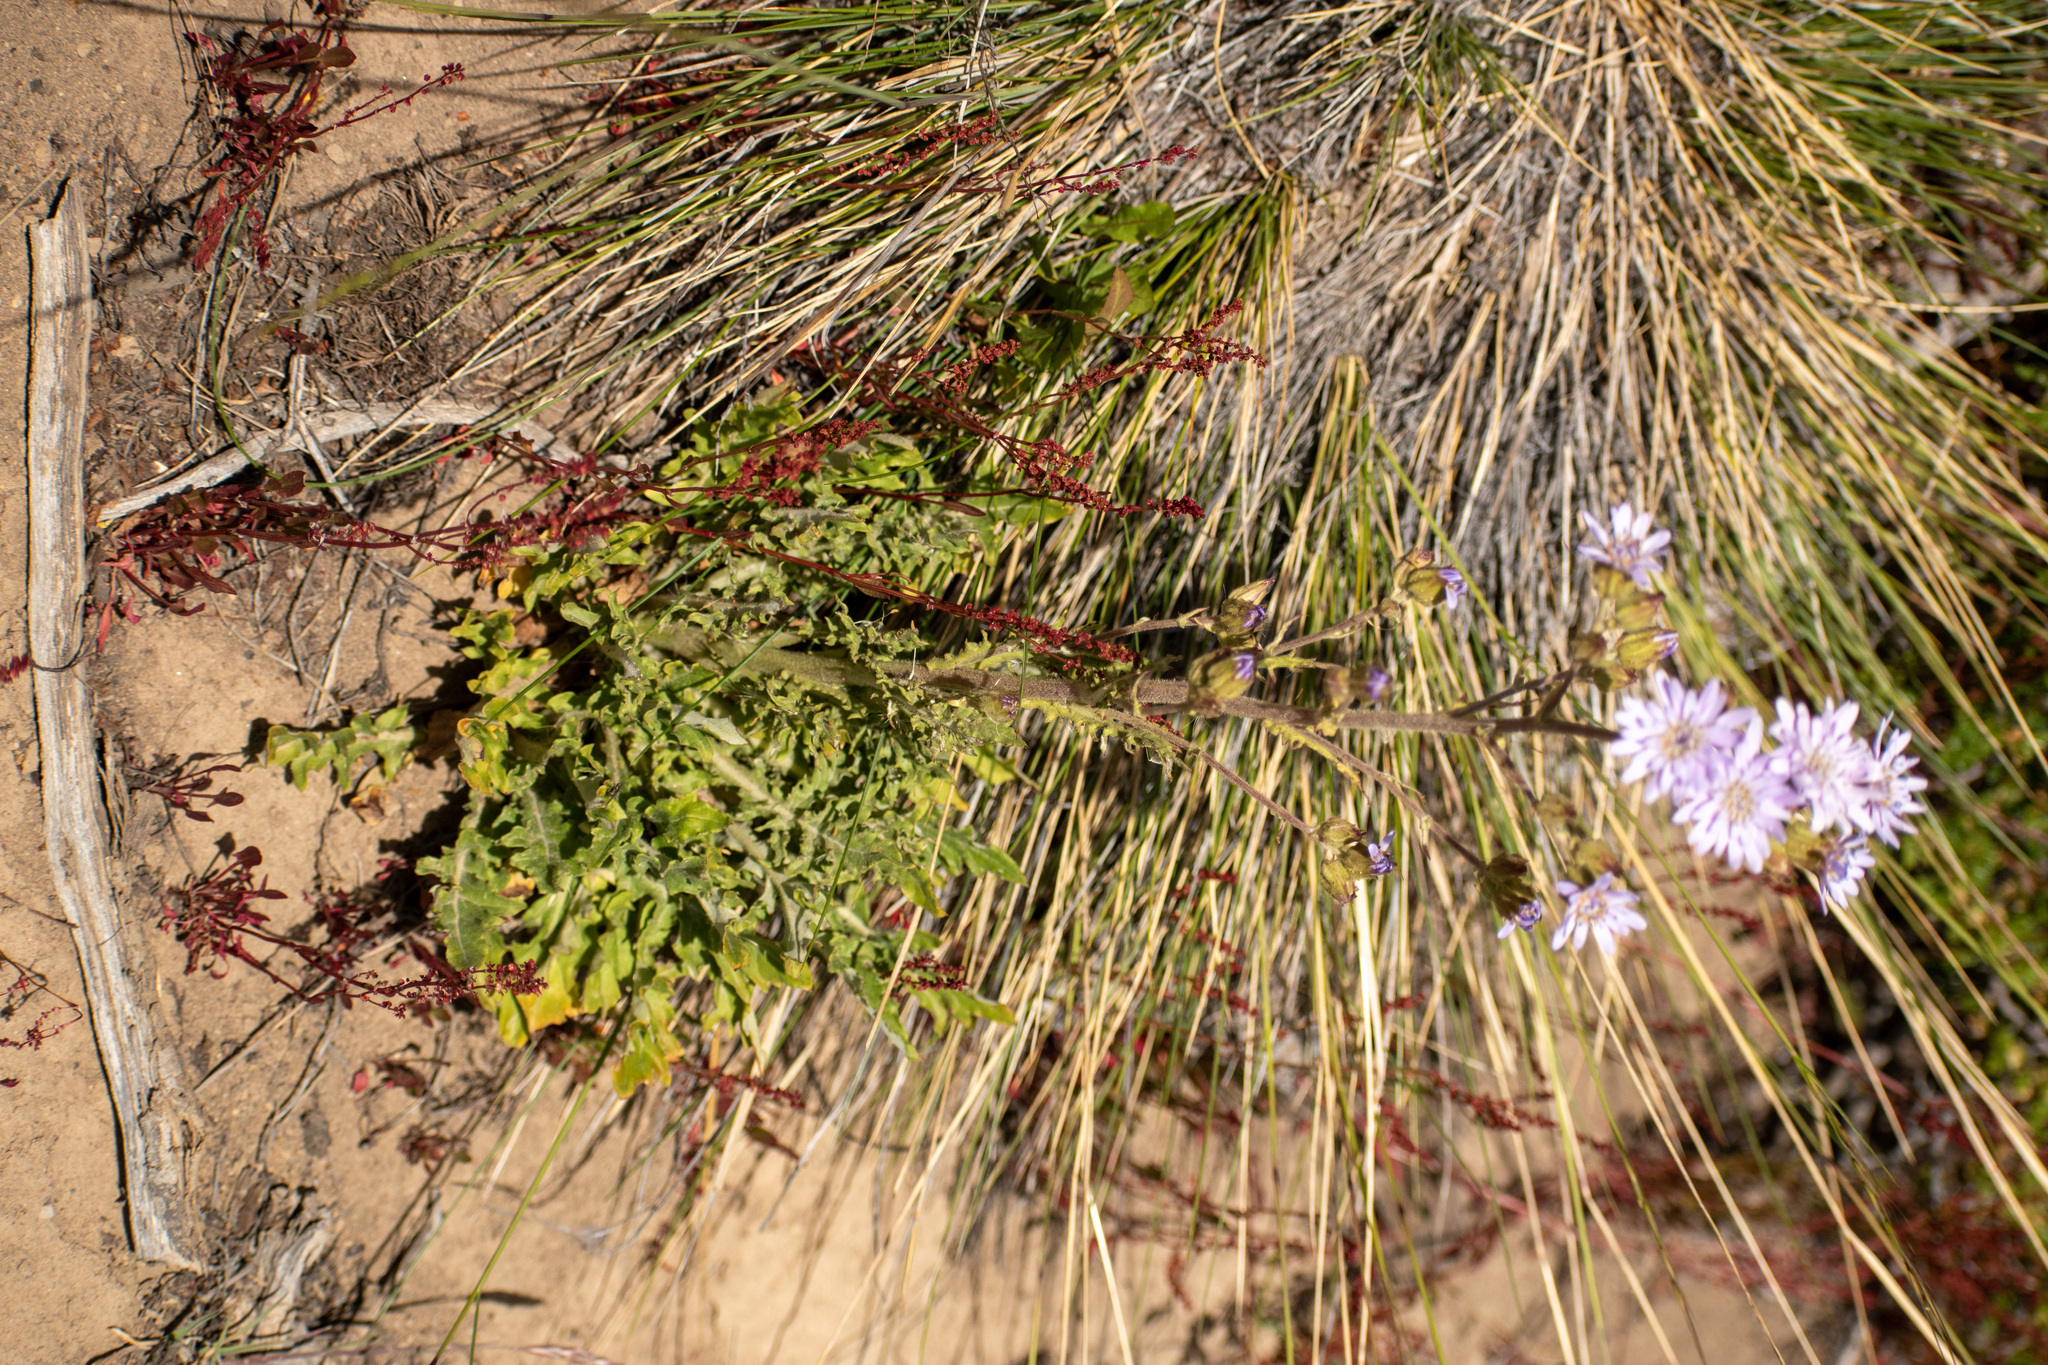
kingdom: Plantae
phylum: Tracheophyta
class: Magnoliopsida
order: Asterales
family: Asteraceae
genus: Leucheria
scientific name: Leucheria glacialis
